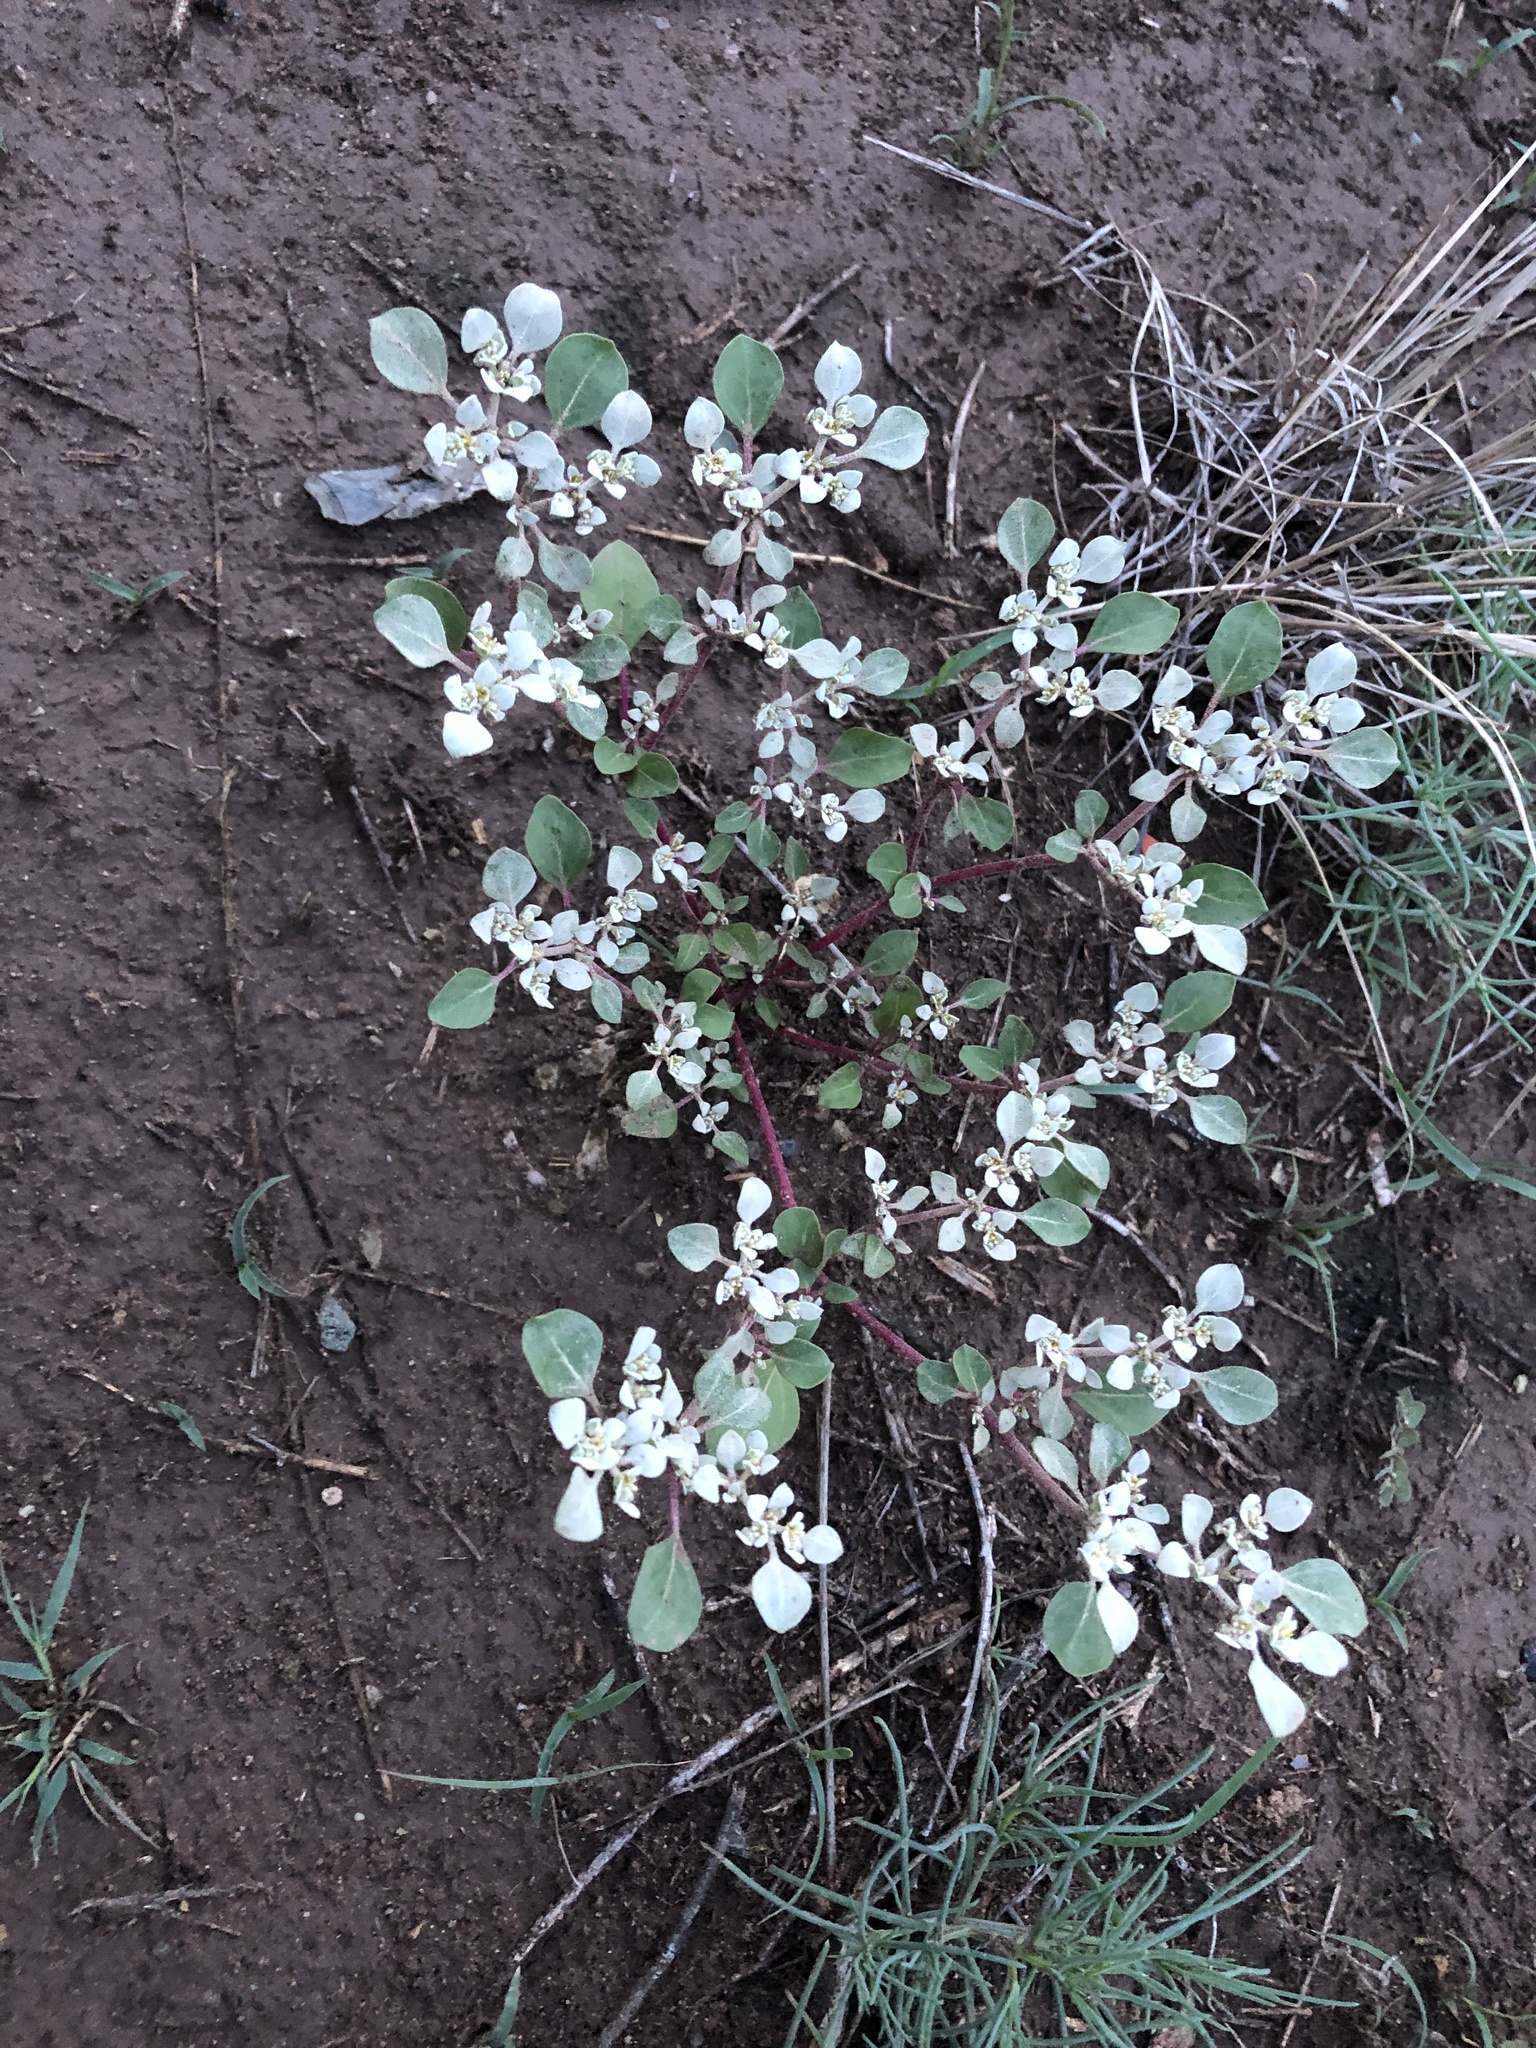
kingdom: Plantae
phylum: Tracheophyta
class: Magnoliopsida
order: Caryophyllales
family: Amaranthaceae
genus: Tidestromia
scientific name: Tidestromia lanuginosa
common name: Woolly tidestromia
